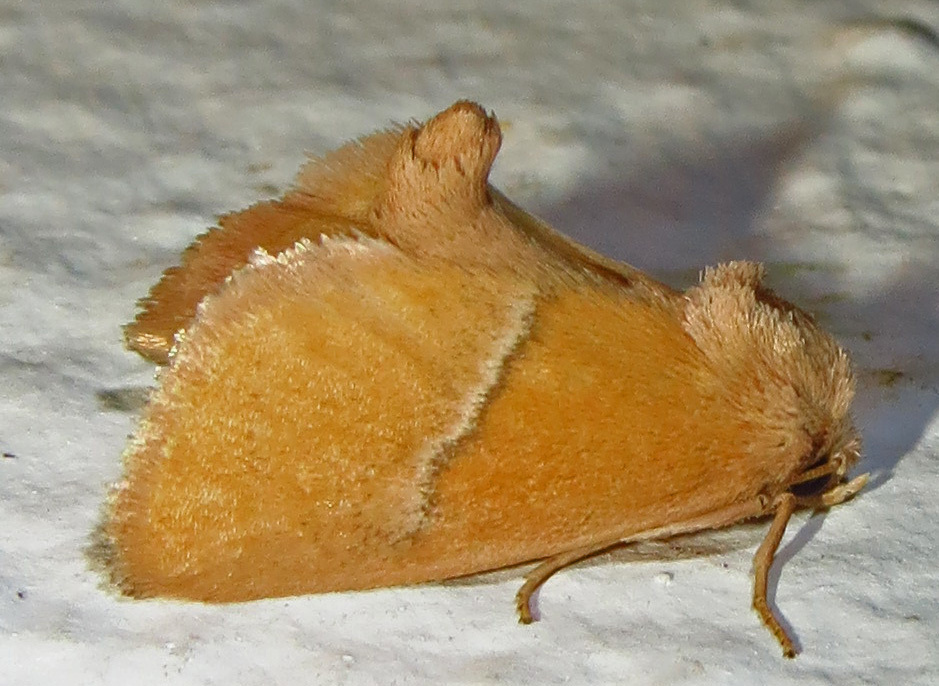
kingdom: Animalia
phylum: Arthropoda
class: Insecta
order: Lepidoptera
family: Limacodidae
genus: Apoda
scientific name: Apoda latomia
